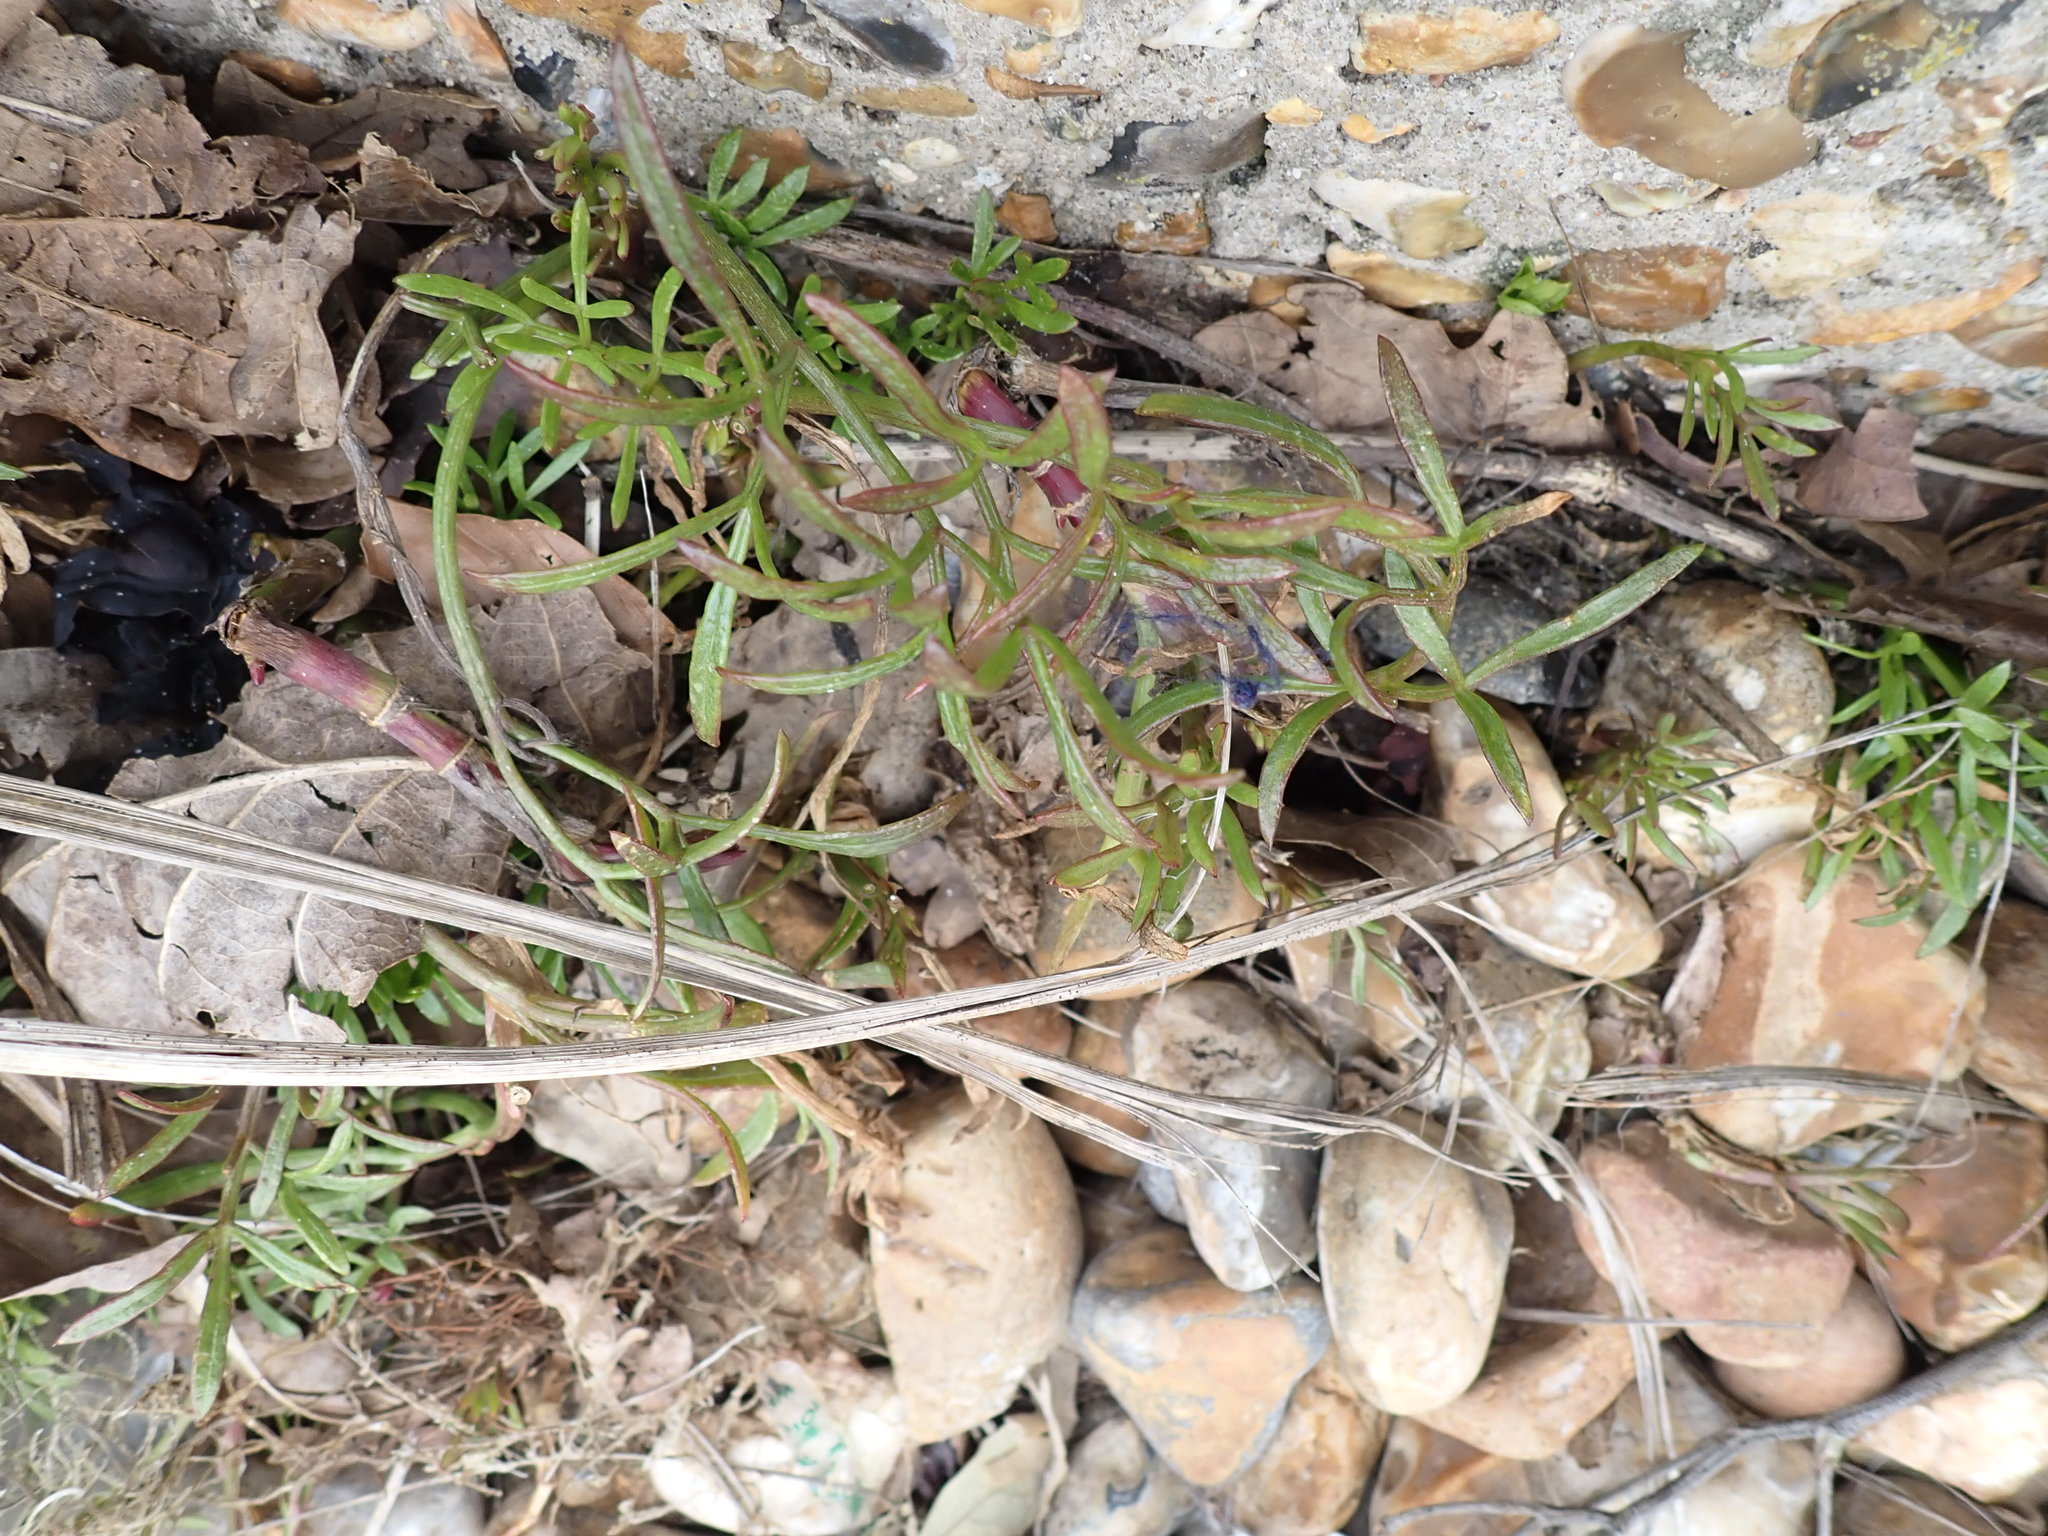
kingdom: Plantae
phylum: Tracheophyta
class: Magnoliopsida
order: Apiales
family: Apiaceae
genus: Crithmum
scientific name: Crithmum maritimum
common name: Rock samphire
